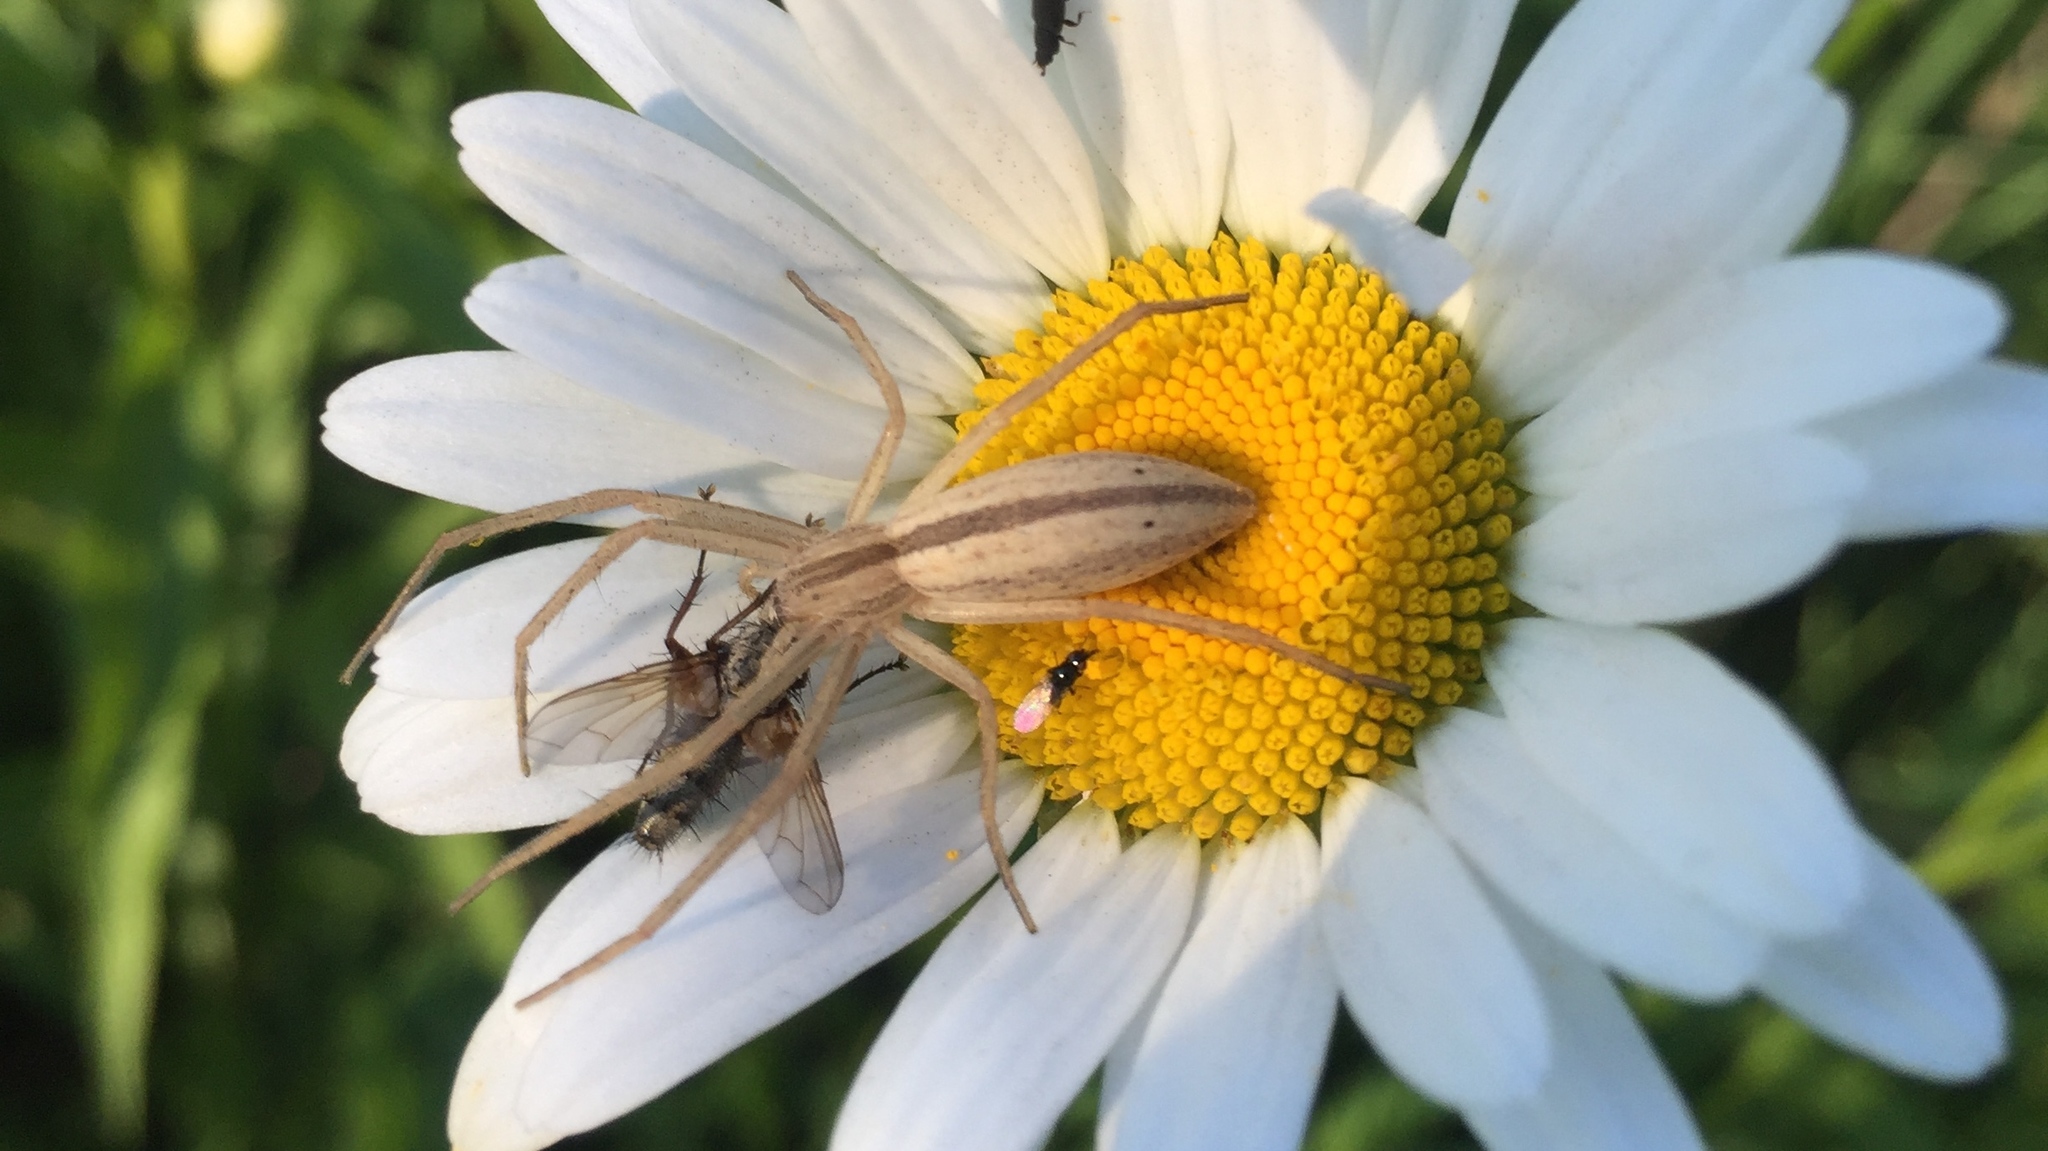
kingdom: Animalia
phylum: Arthropoda
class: Arachnida
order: Araneae
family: Philodromidae
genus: Tibellus
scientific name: Tibellus oblongus
